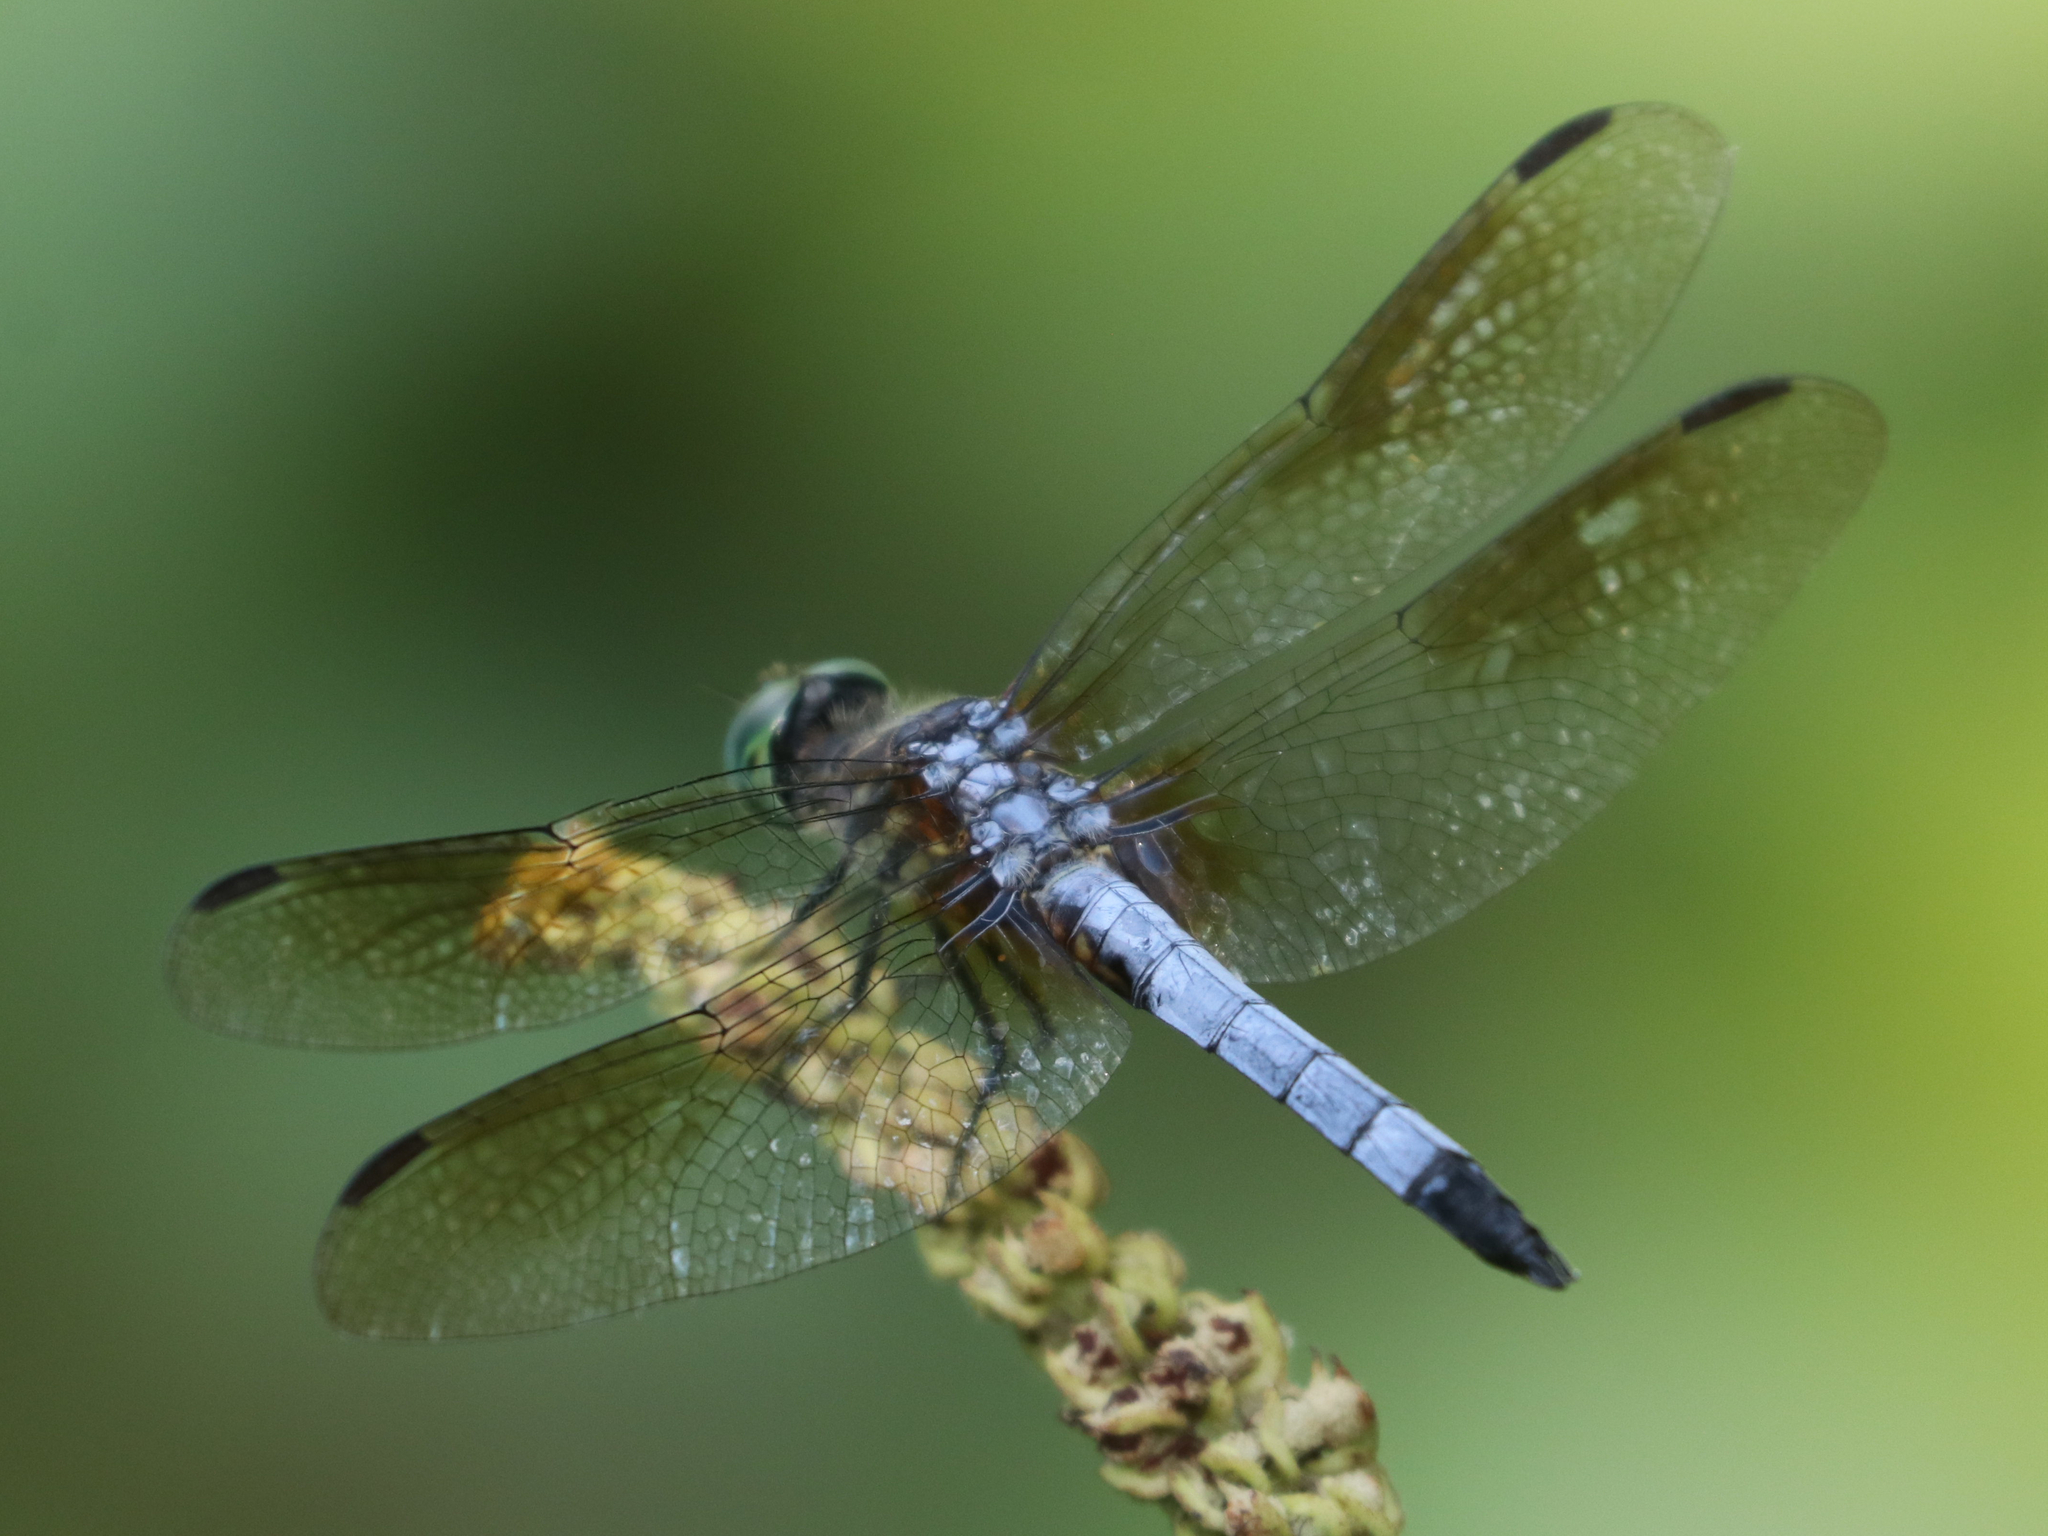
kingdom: Animalia
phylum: Arthropoda
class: Insecta
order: Odonata
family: Libellulidae
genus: Pachydiplax
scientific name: Pachydiplax longipennis
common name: Blue dasher
